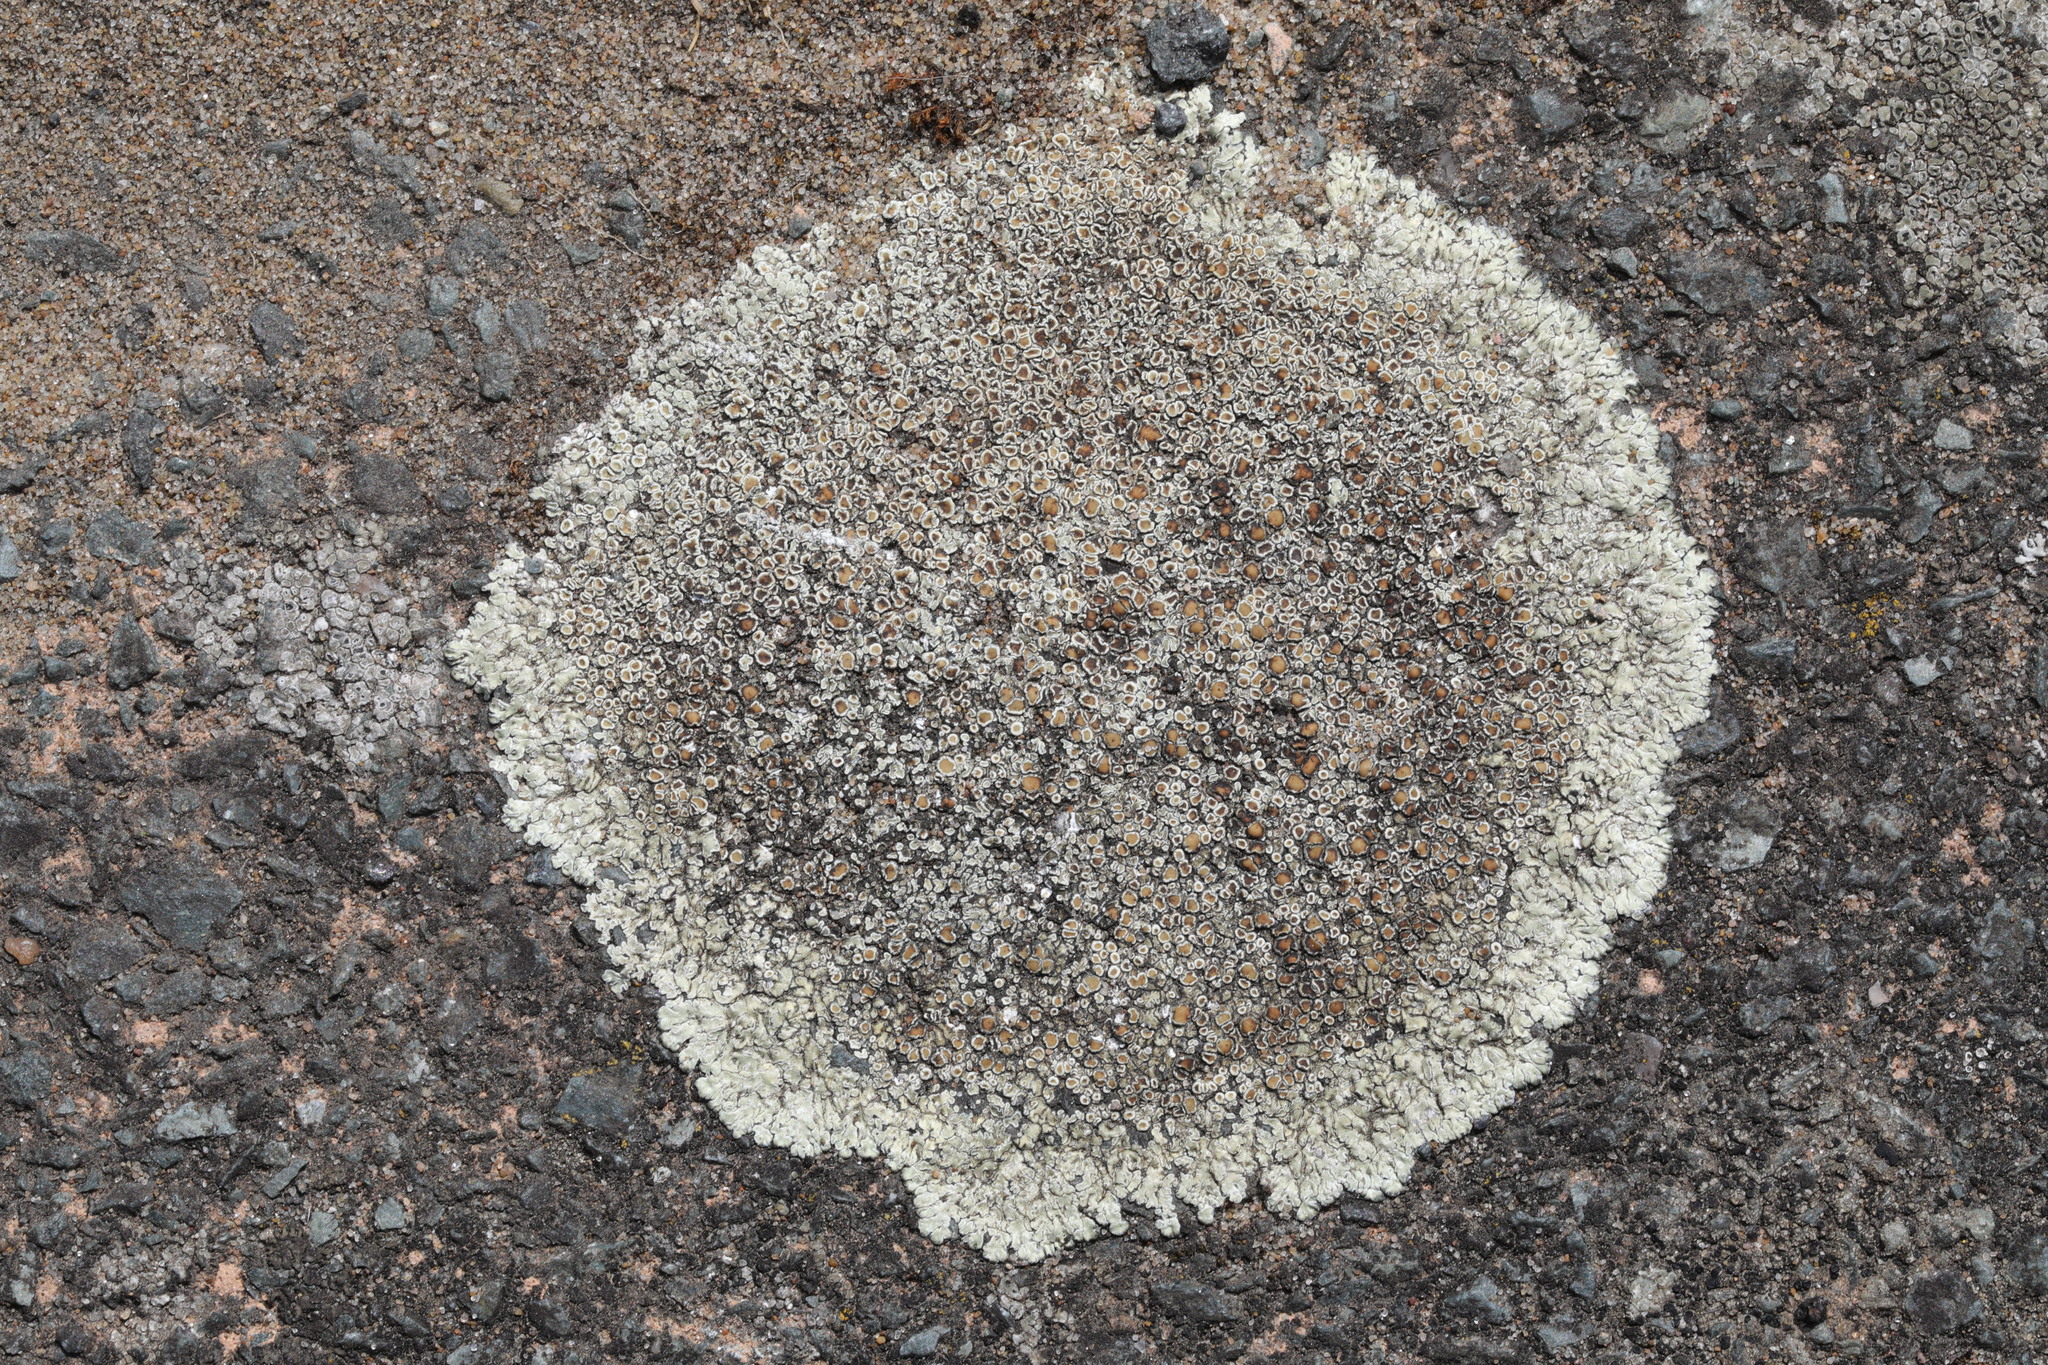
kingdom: Fungi
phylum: Ascomycota
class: Lecanoromycetes
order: Lecanorales
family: Lecanoraceae
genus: Protoparmeliopsis
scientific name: Protoparmeliopsis muralis
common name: Stonewall rim lichen
